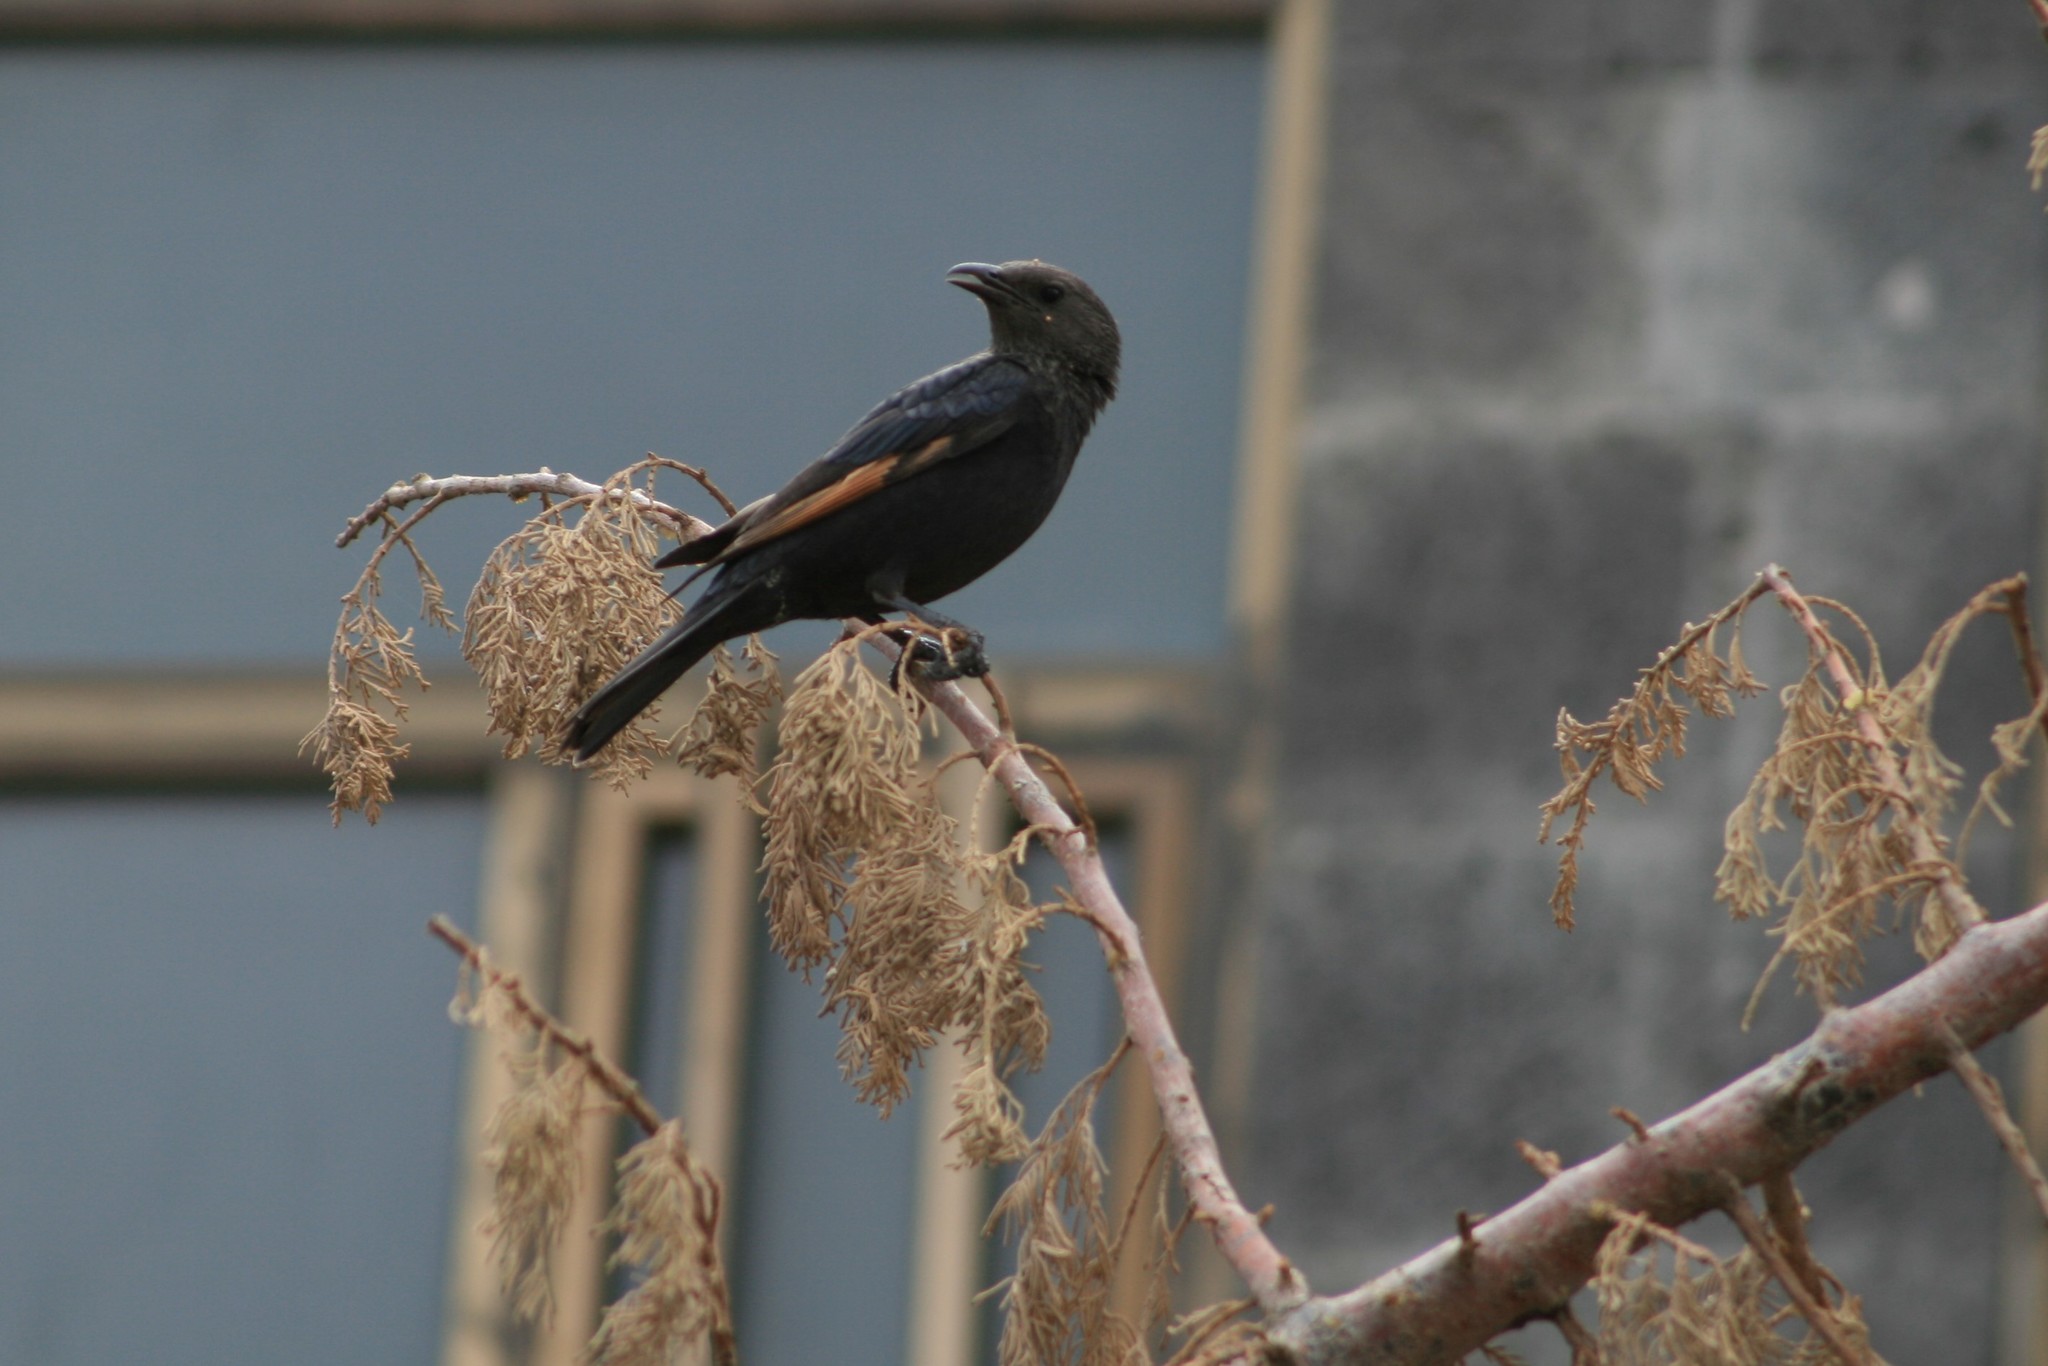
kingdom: Animalia
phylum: Chordata
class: Aves
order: Passeriformes
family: Sturnidae
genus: Onychognathus
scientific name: Onychognathus tristramii
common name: Tristram's starling
